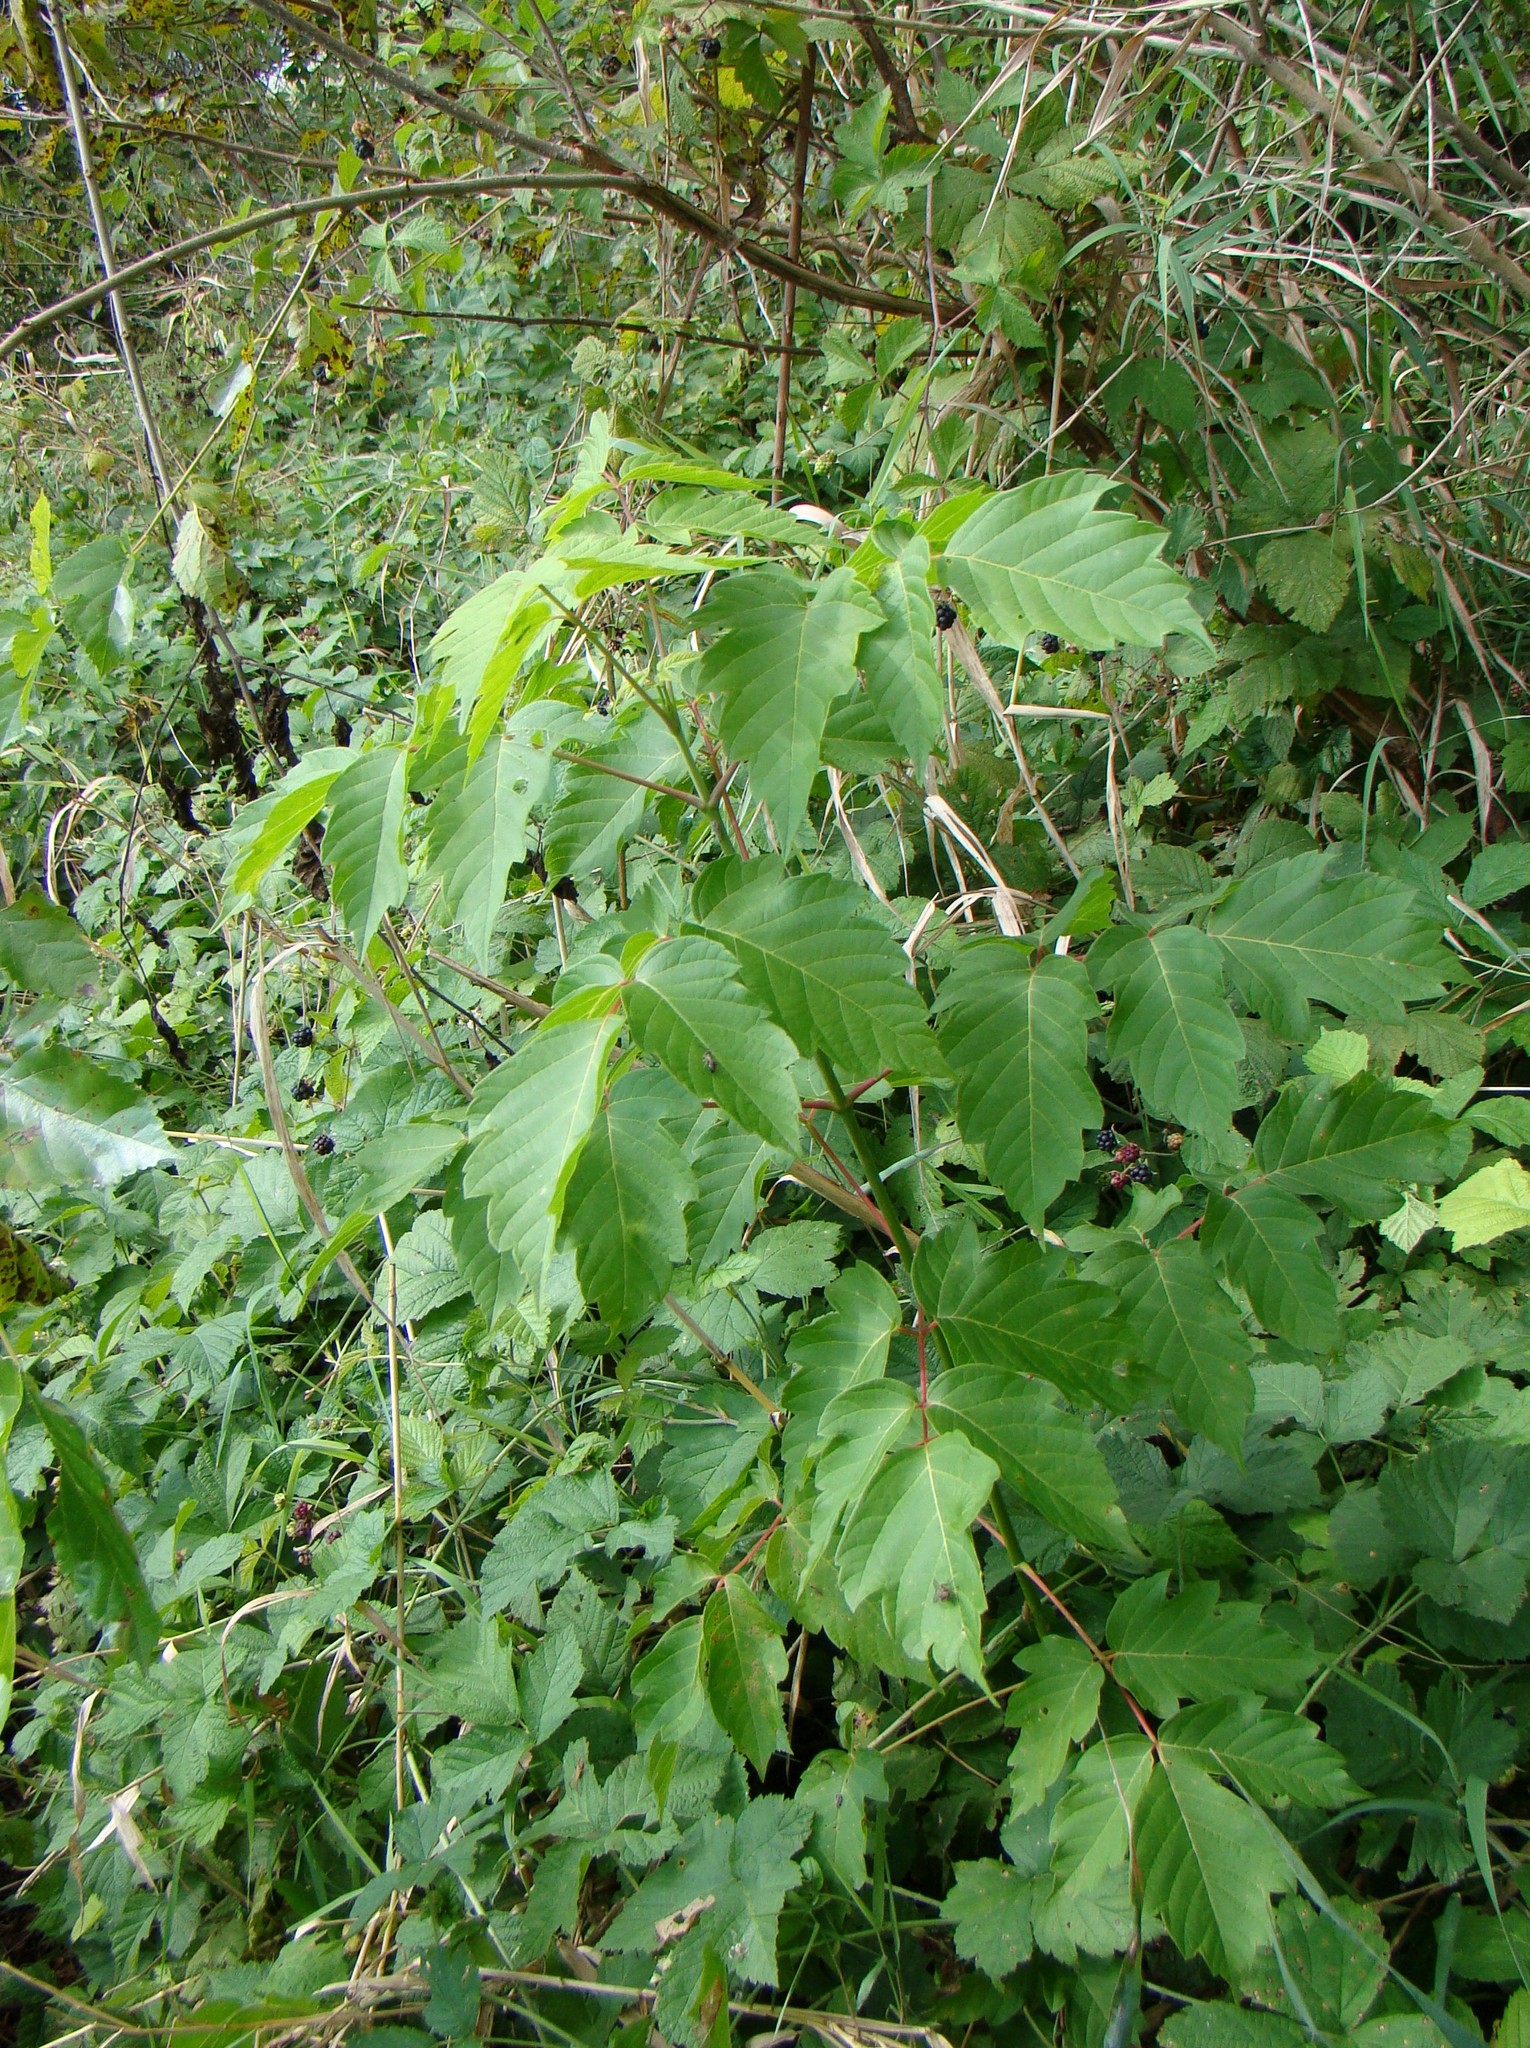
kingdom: Plantae
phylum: Tracheophyta
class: Magnoliopsida
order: Sapindales
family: Sapindaceae
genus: Acer
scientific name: Acer negundo
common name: Ashleaf maple
